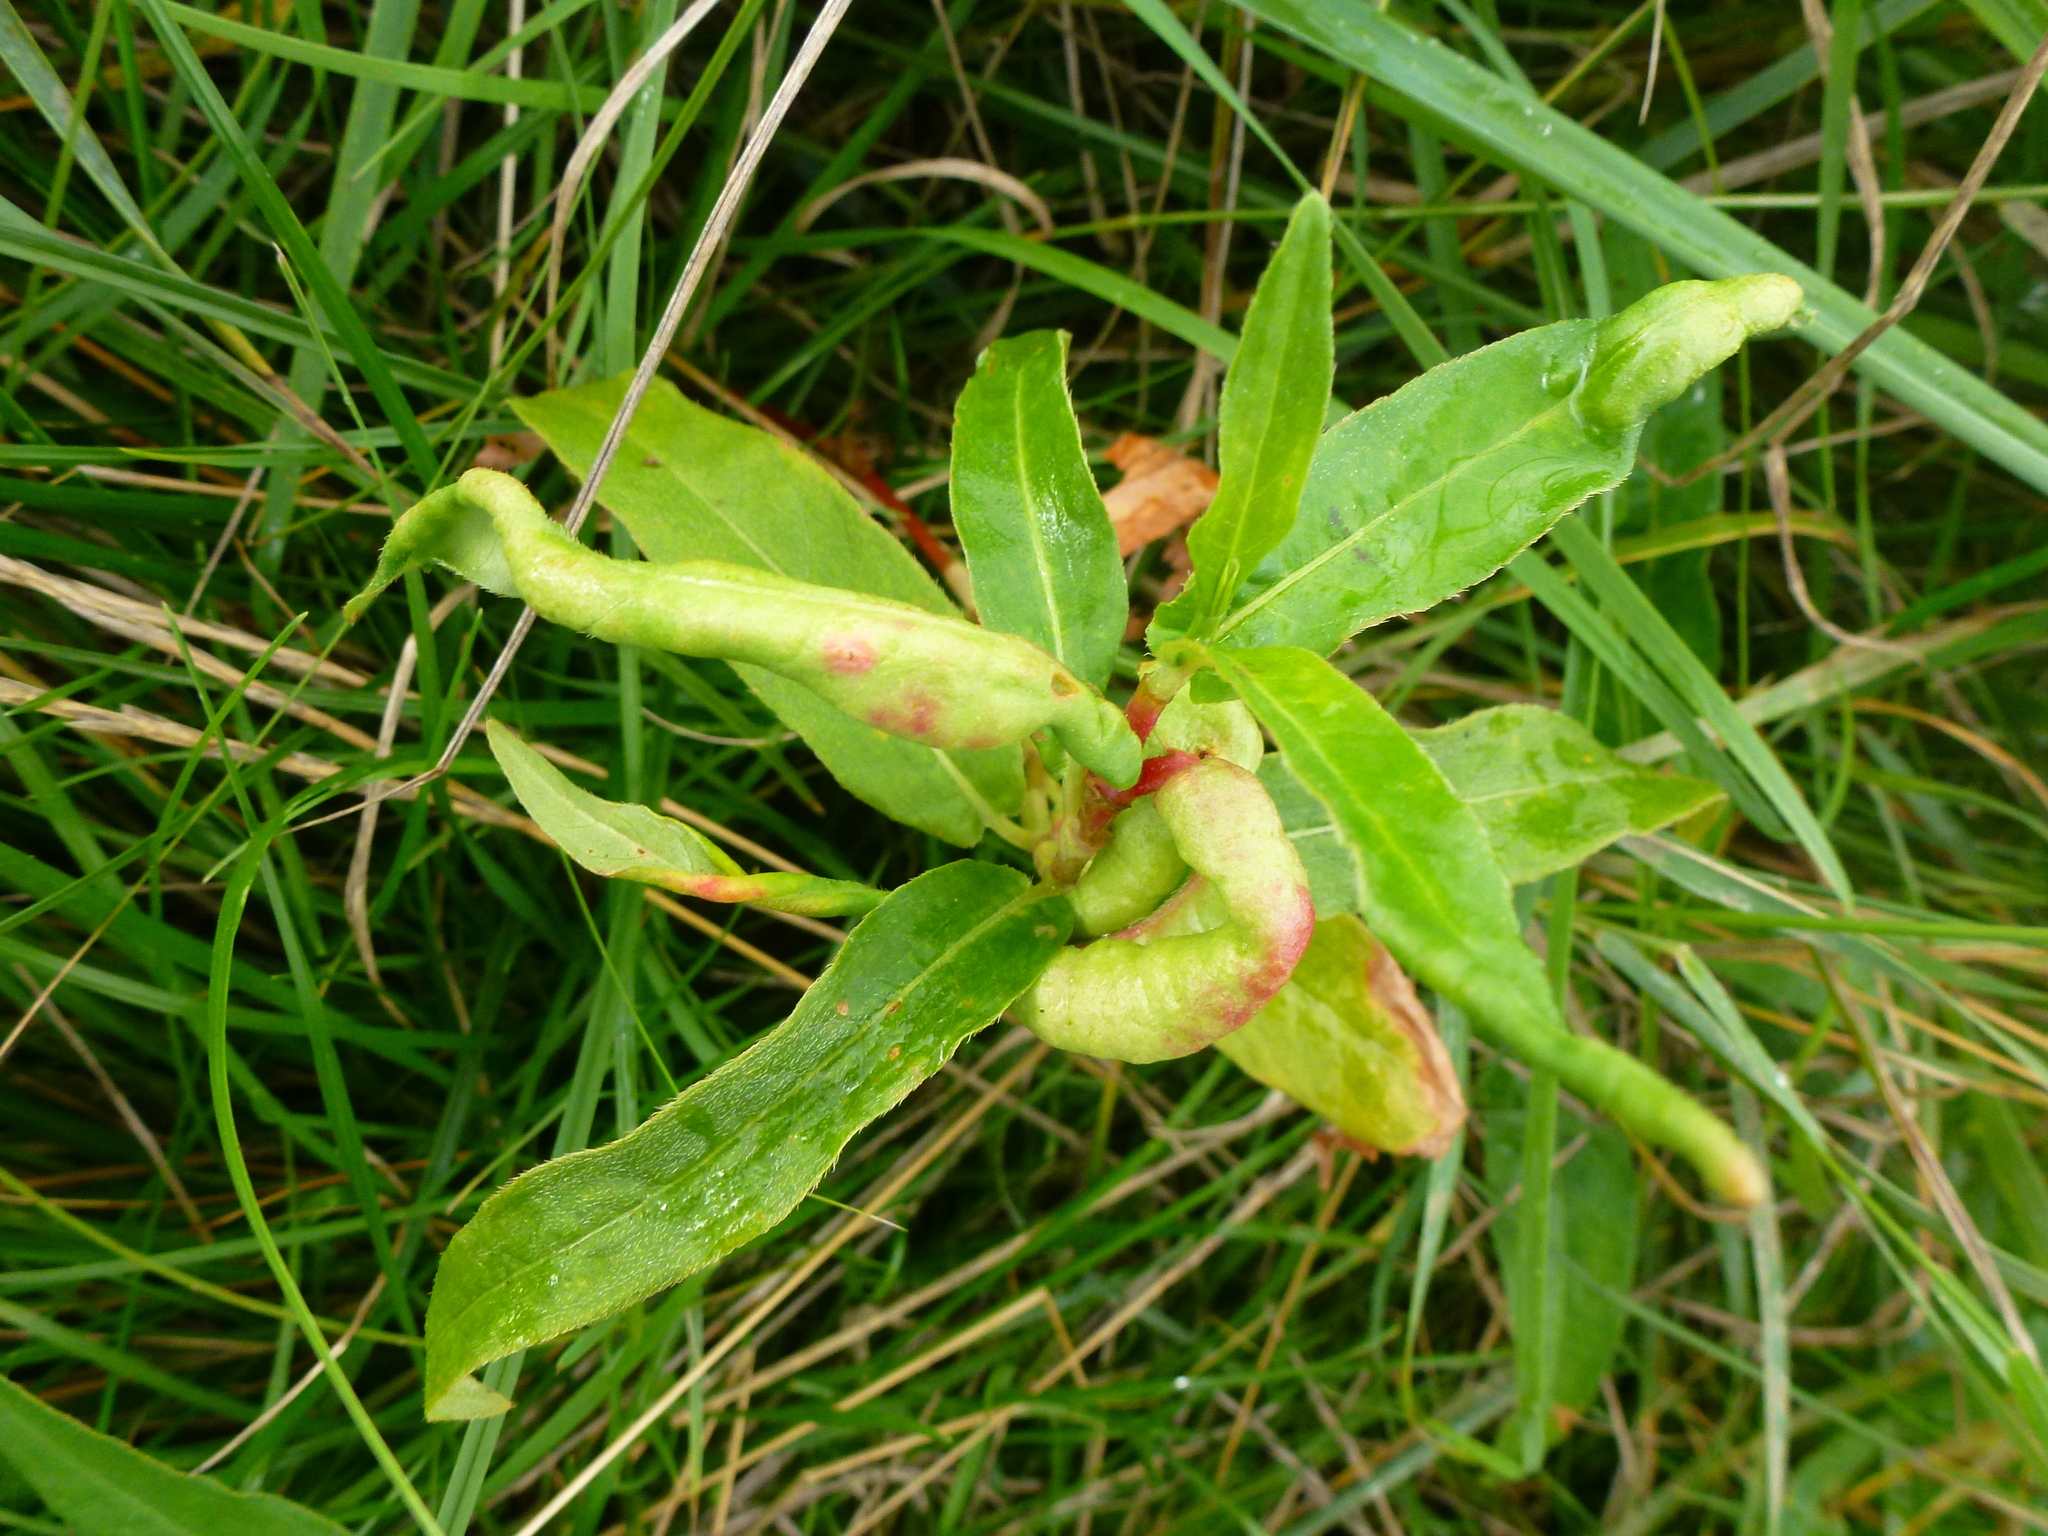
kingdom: Animalia
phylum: Arthropoda
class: Insecta
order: Diptera
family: Cecidomyiidae
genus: Wachtliella
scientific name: Wachtliella persicariae
